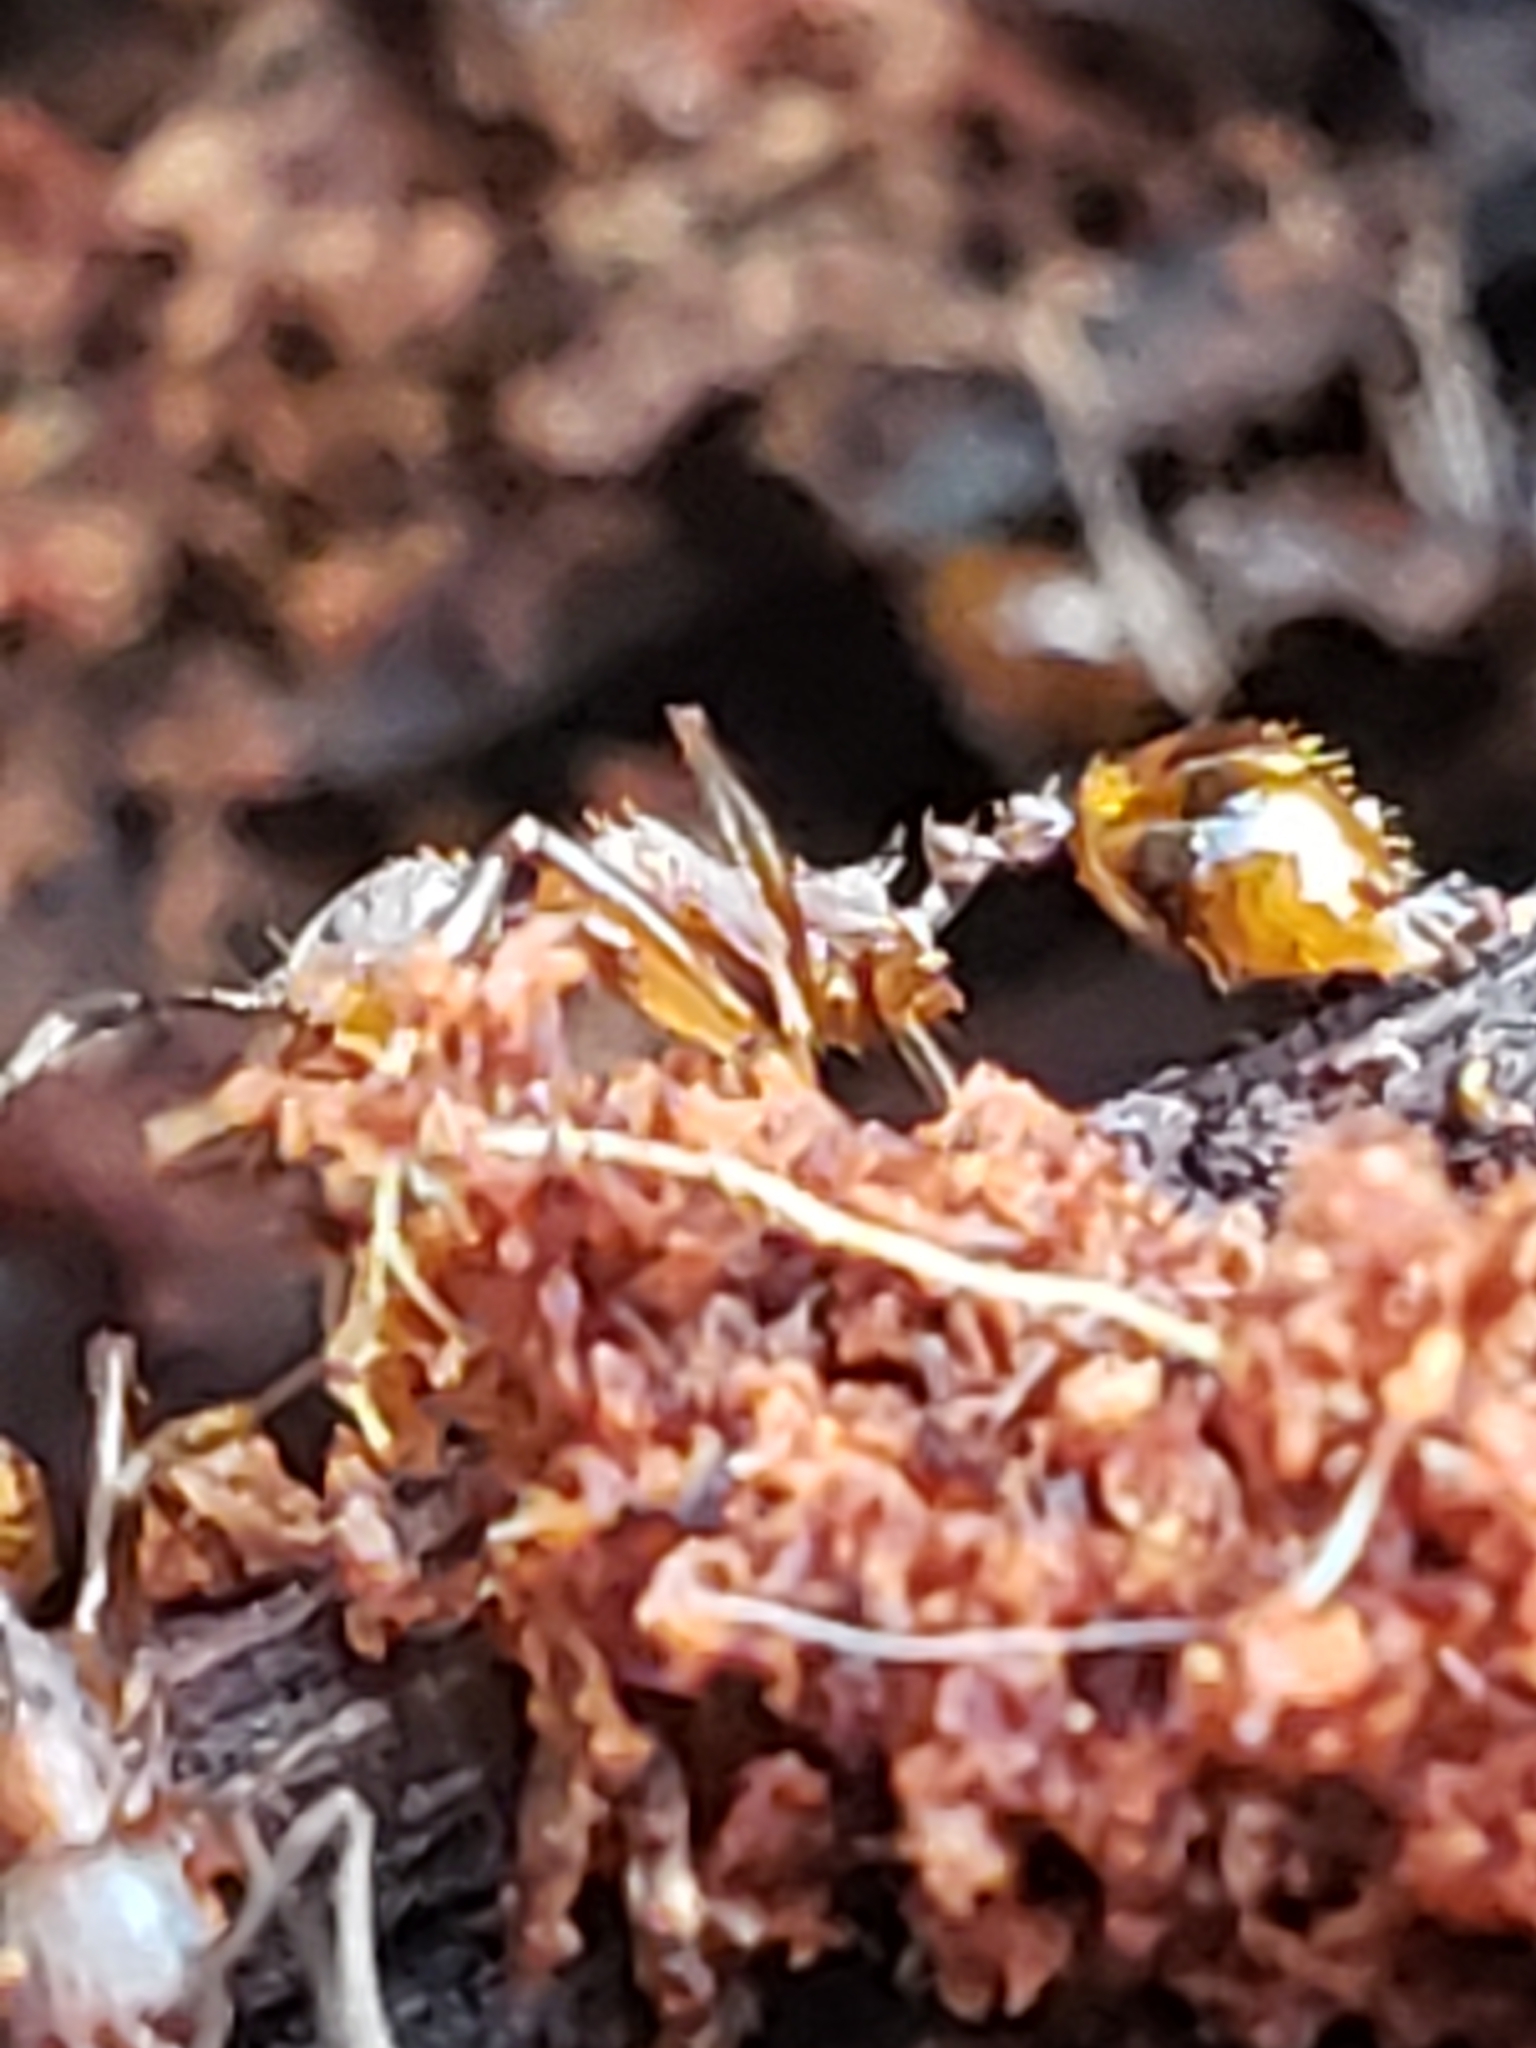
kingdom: Animalia
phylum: Arthropoda
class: Insecta
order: Hymenoptera
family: Formicidae
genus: Aphaenogaster
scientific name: Aphaenogaster fulva
